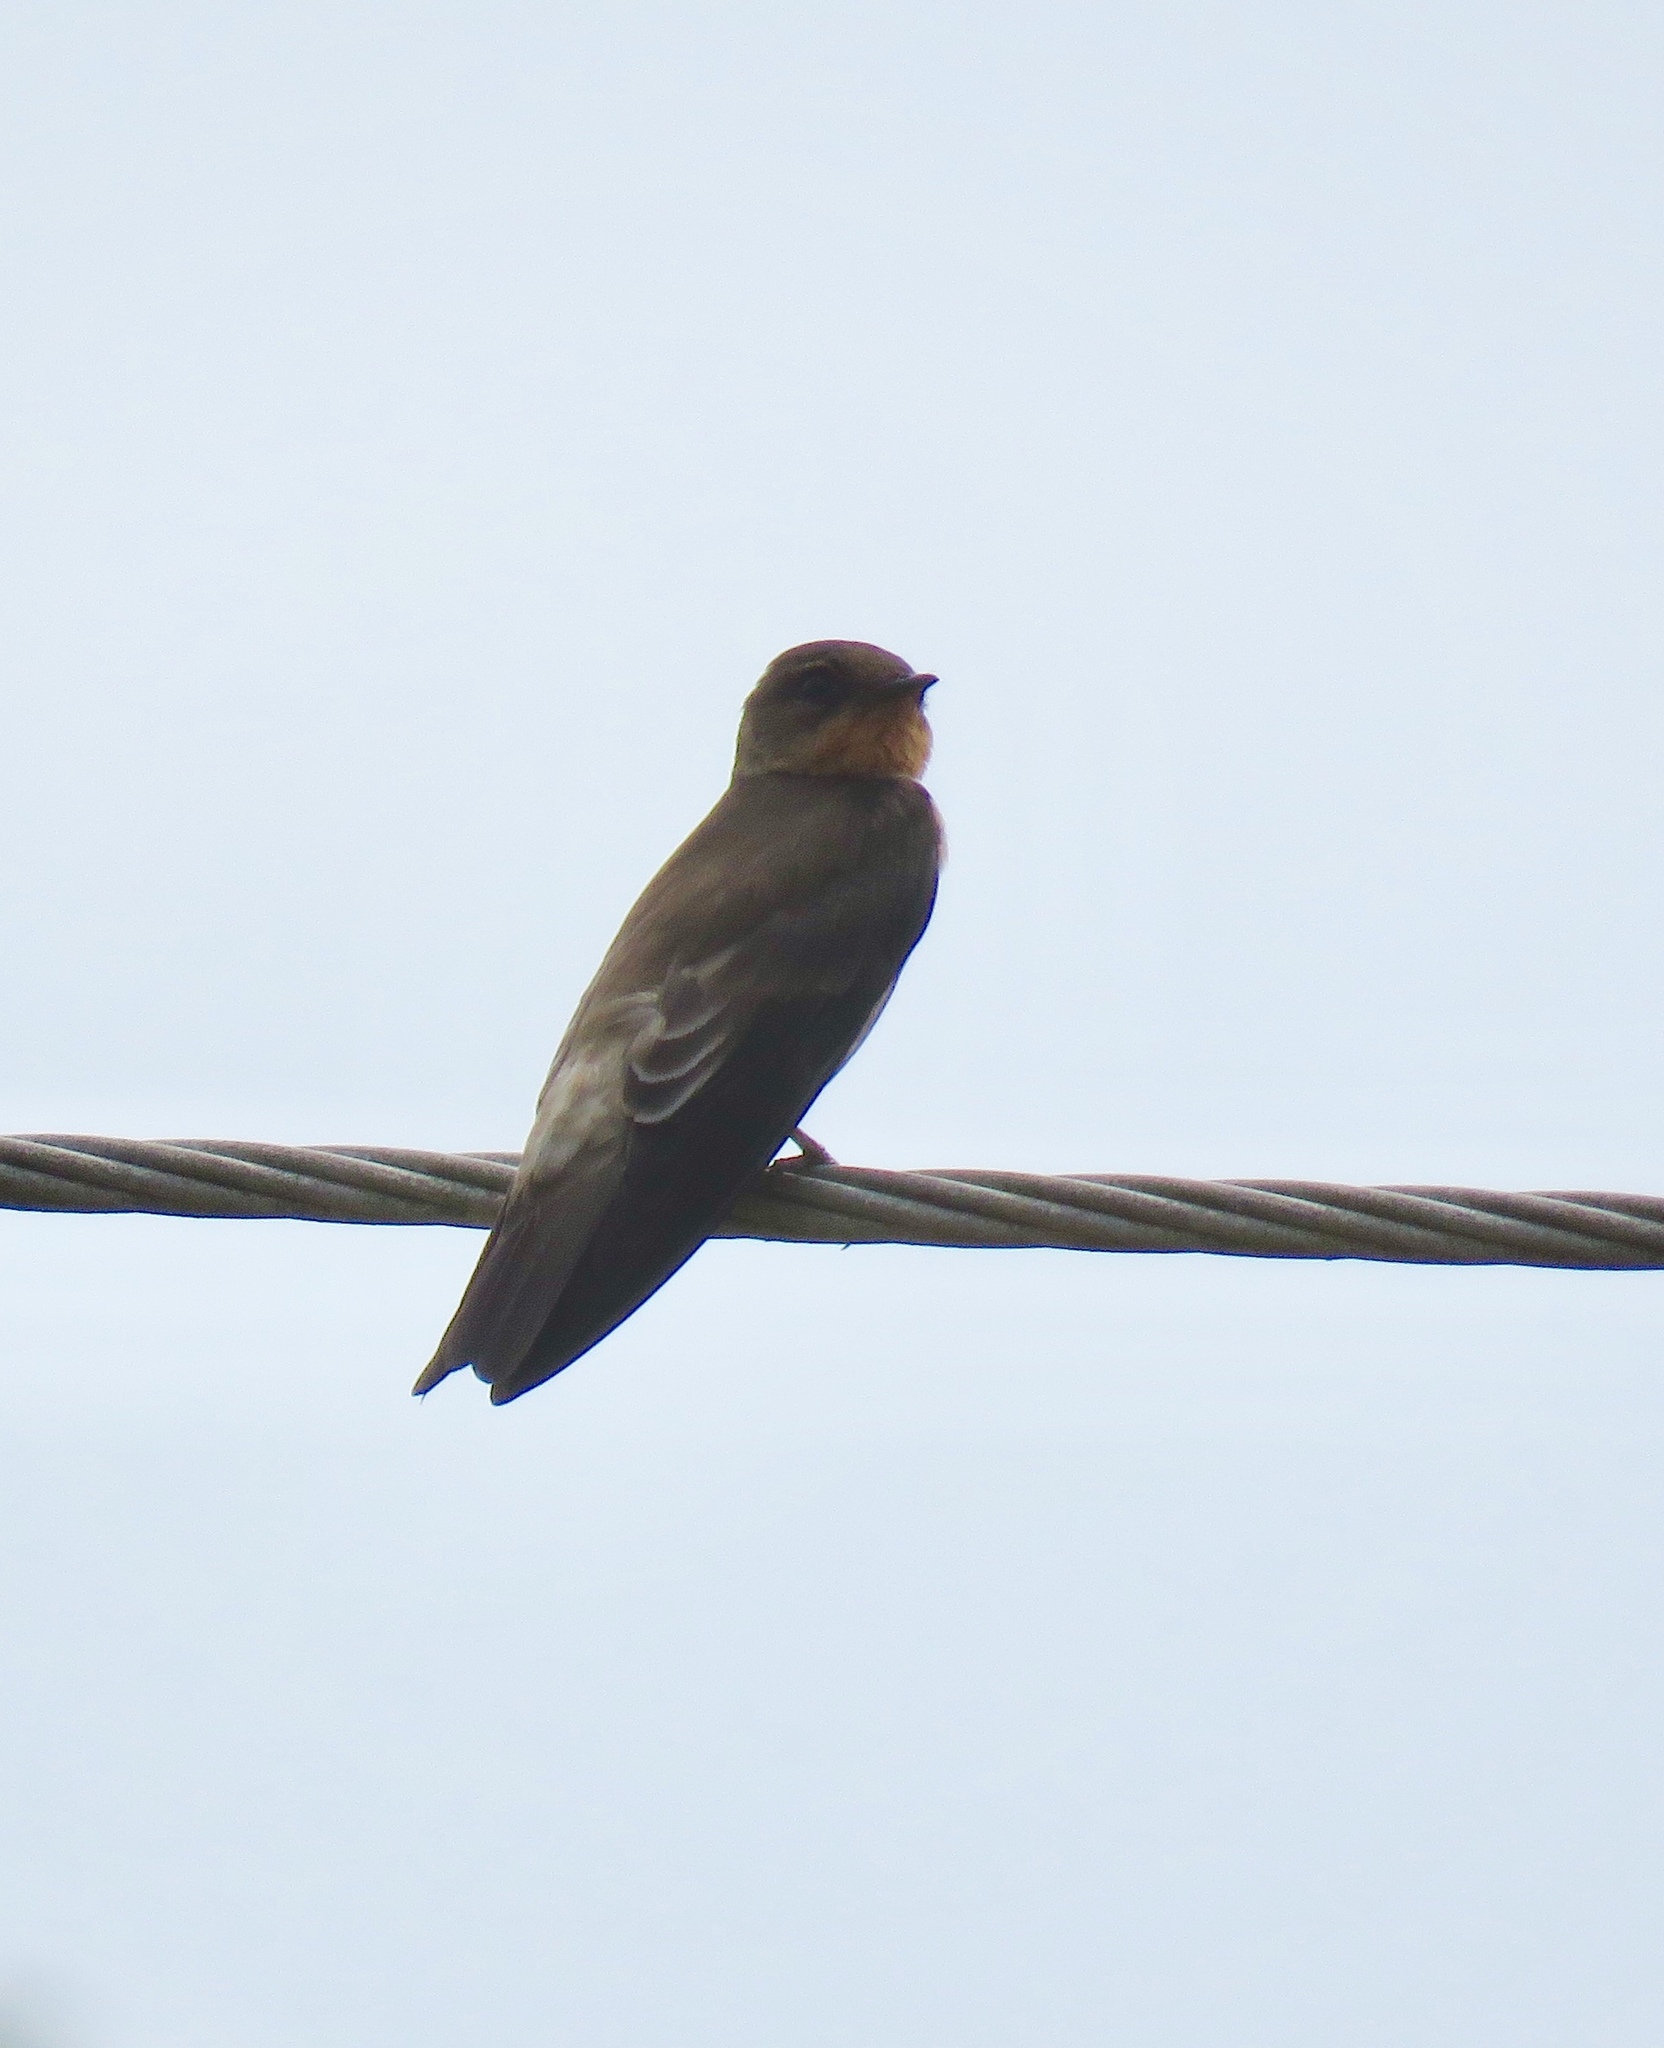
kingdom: Animalia
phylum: Chordata
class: Aves
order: Passeriformes
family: Hirundinidae
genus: Stelgidopteryx
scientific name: Stelgidopteryx ruficollis
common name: Southern rough-winged swallow
